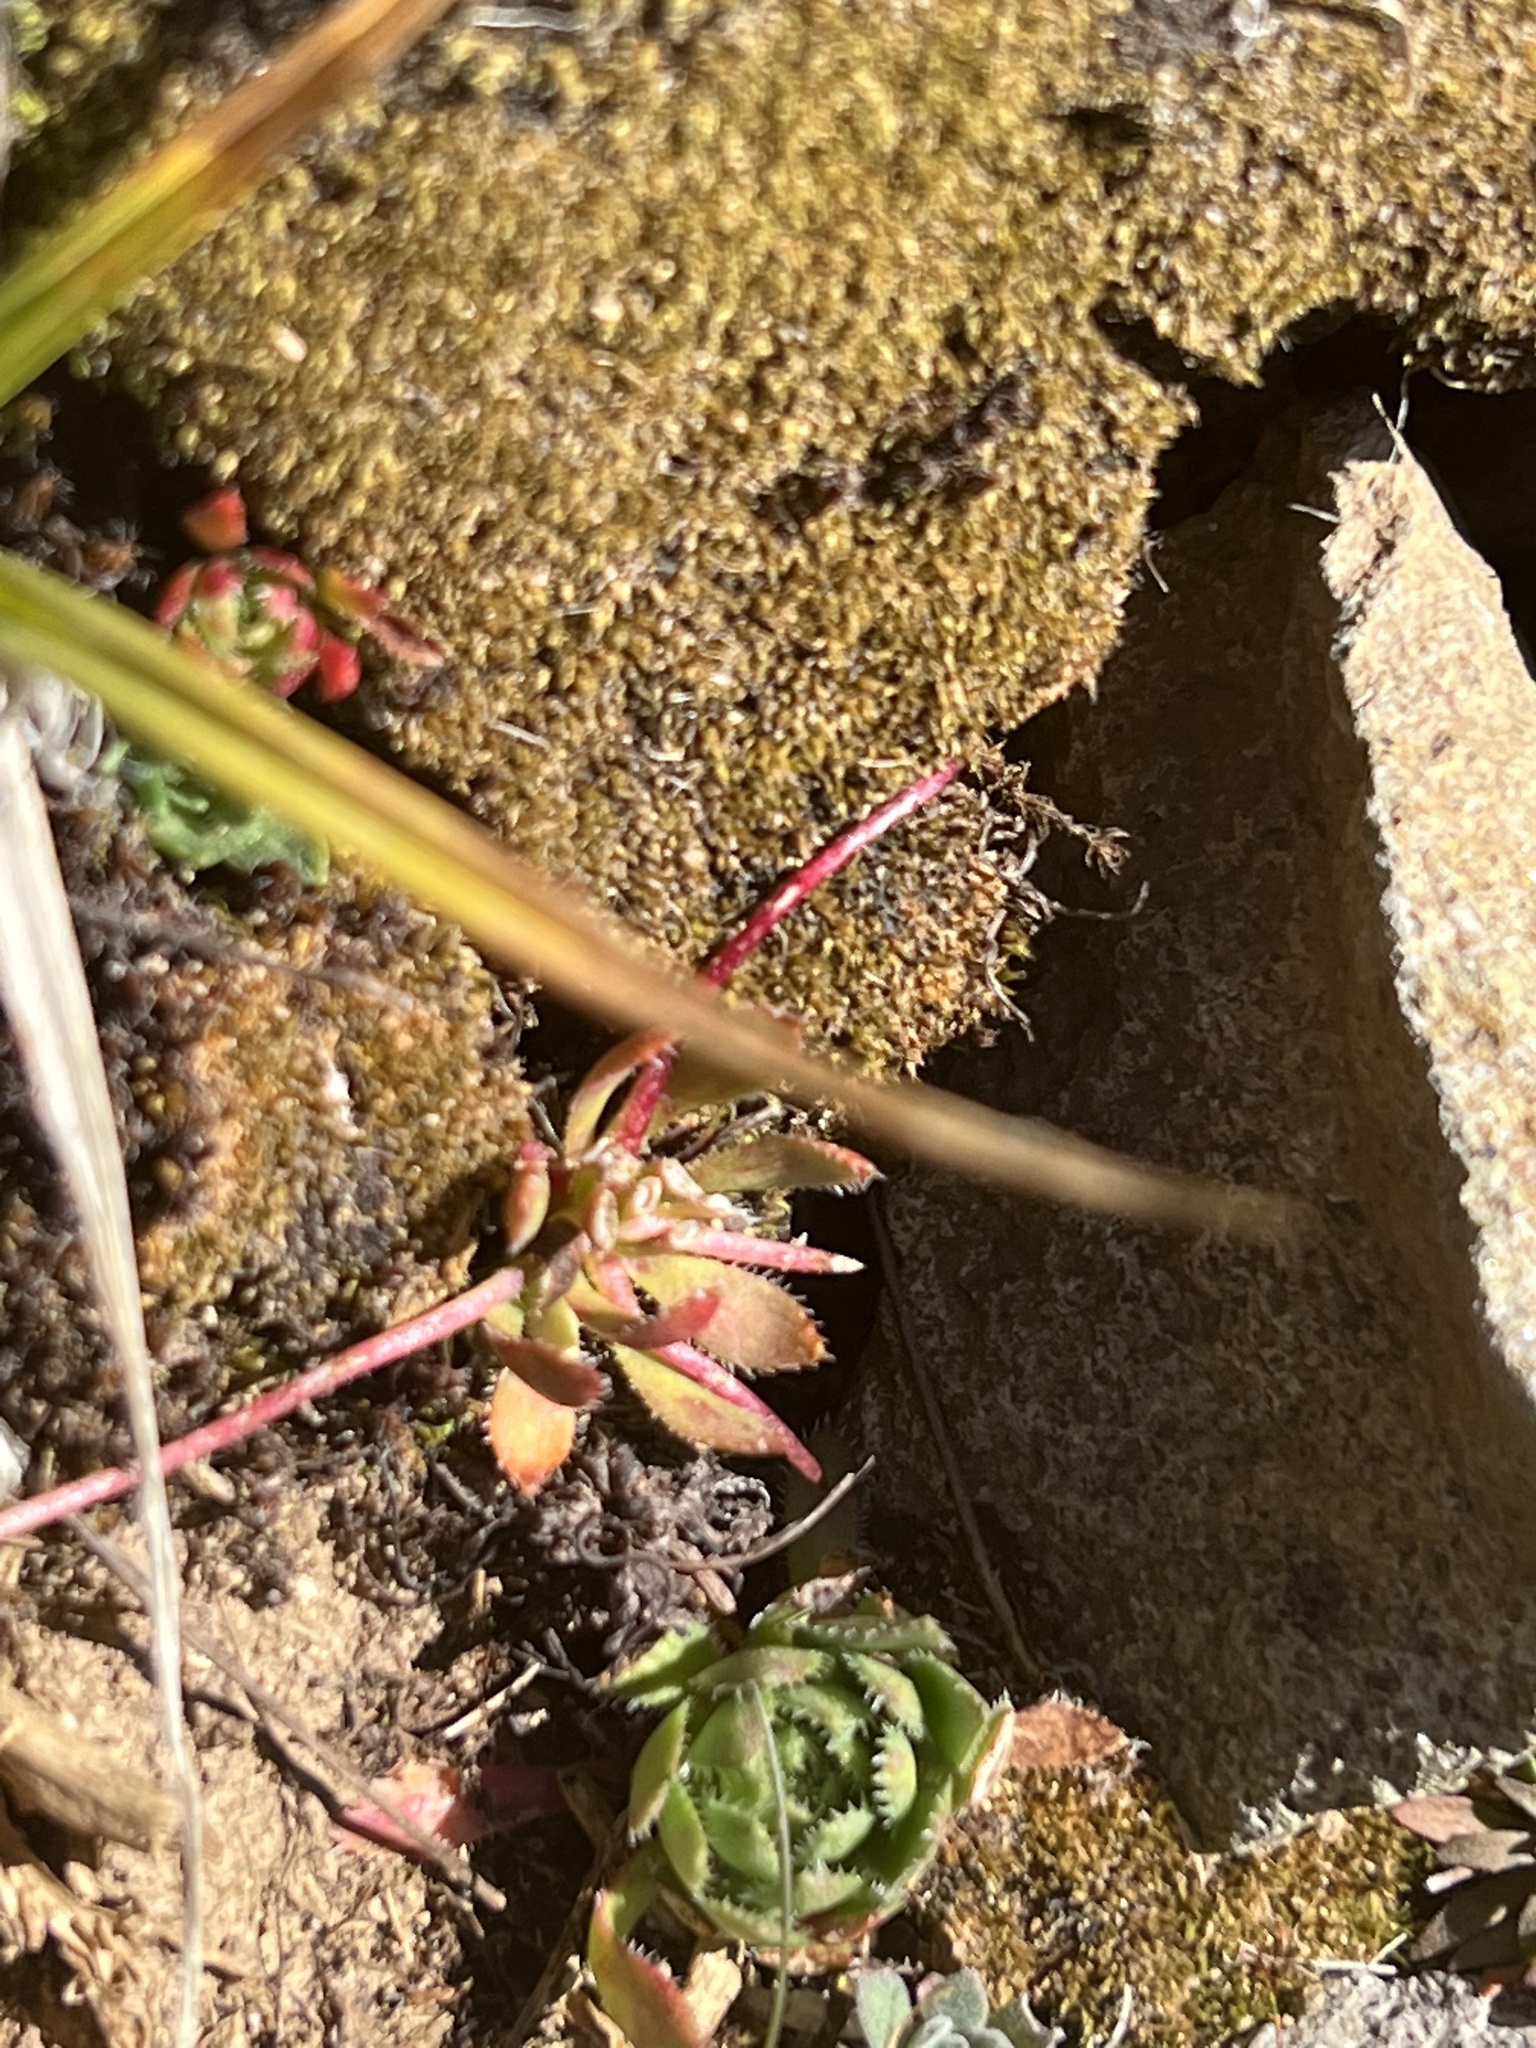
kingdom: Plantae
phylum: Tracheophyta
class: Magnoliopsida
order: Saxifragales
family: Saxifragaceae
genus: Saxifraga
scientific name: Saxifraga flagellaris
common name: Spider saxifrage
